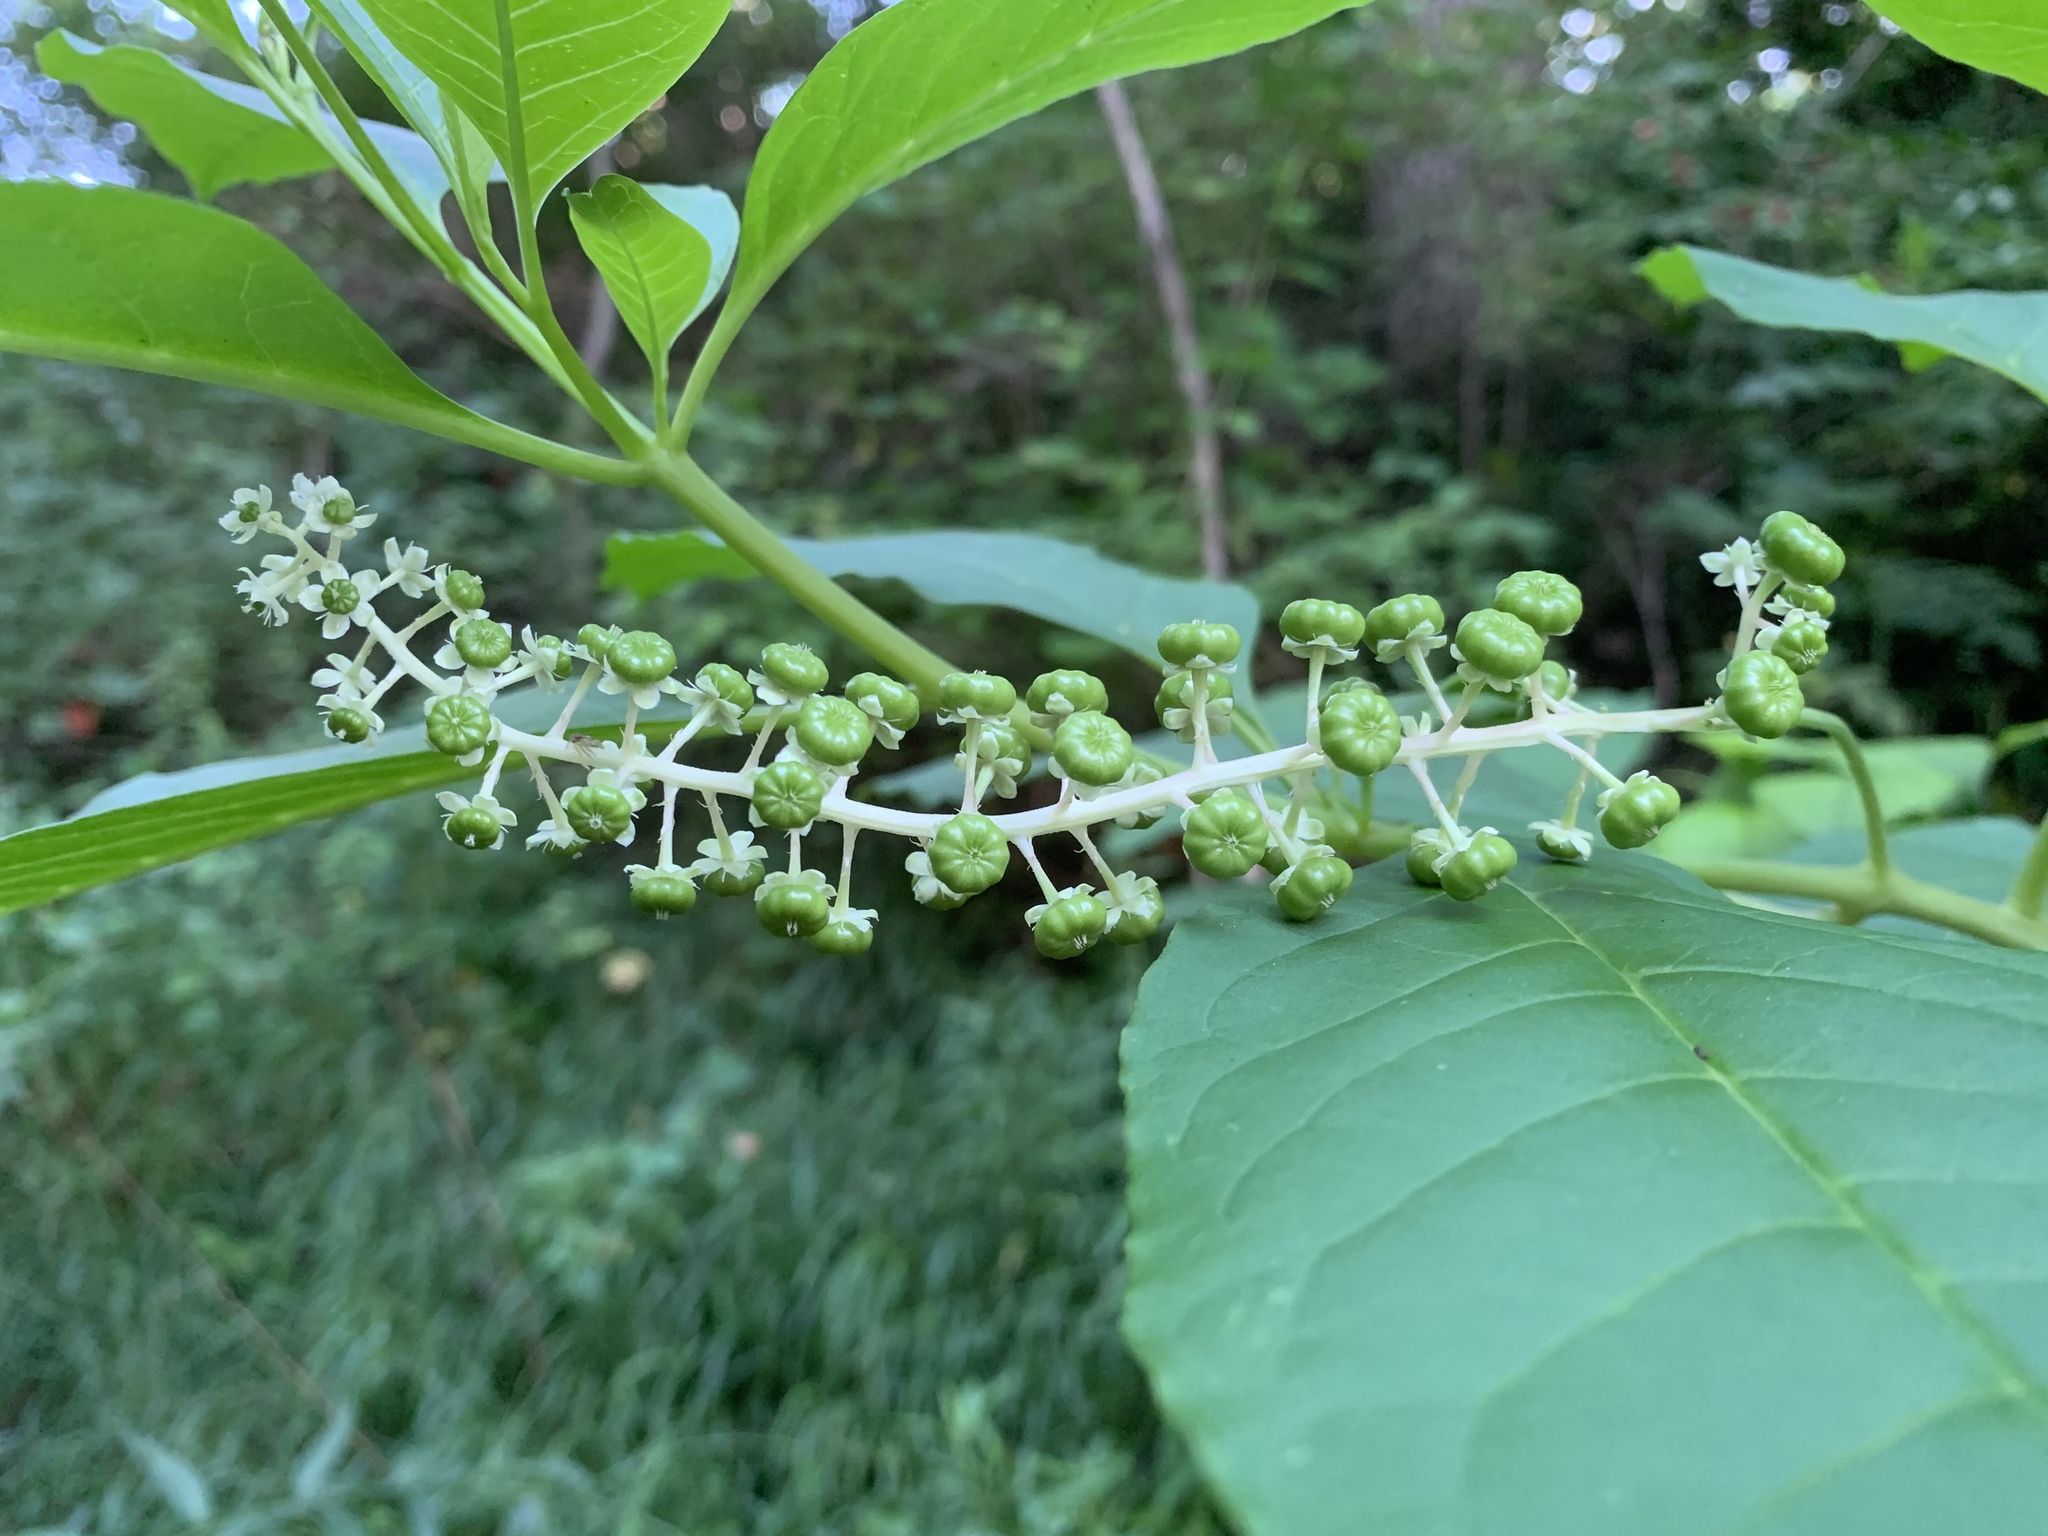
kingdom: Plantae
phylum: Tracheophyta
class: Magnoliopsida
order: Caryophyllales
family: Phytolaccaceae
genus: Phytolacca
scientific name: Phytolacca americana
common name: American pokeweed
